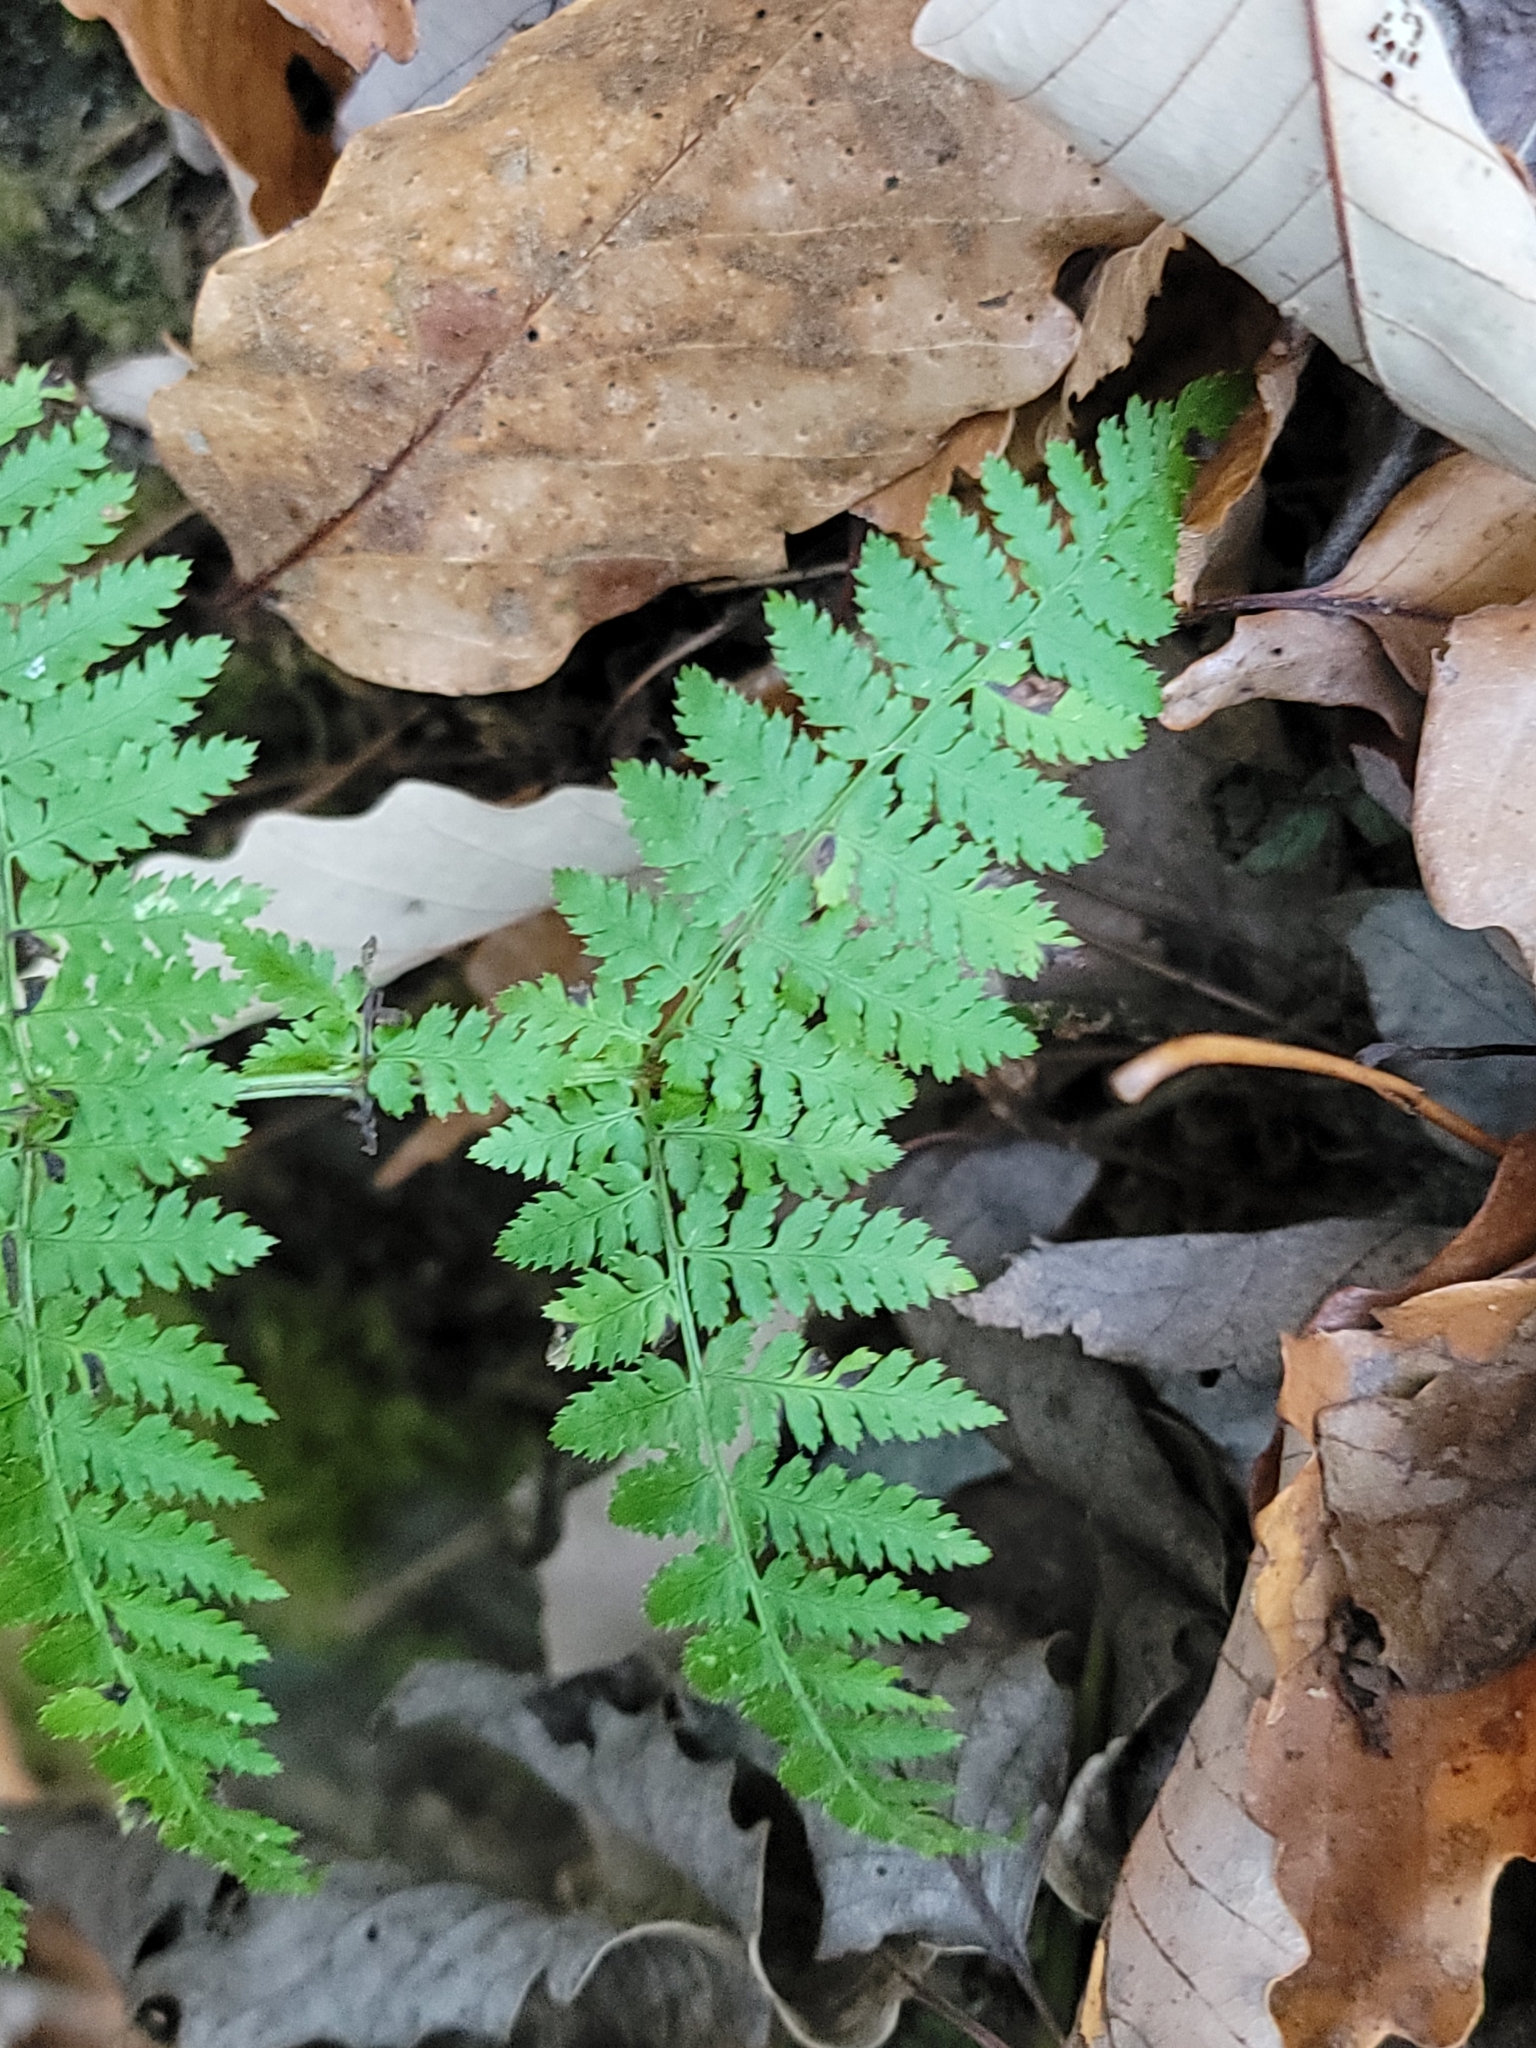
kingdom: Plantae
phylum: Tracheophyta
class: Polypodiopsida
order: Polypodiales
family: Dryopteridaceae
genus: Dryopteris
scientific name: Dryopteris intermedia
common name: Evergreen wood fern
